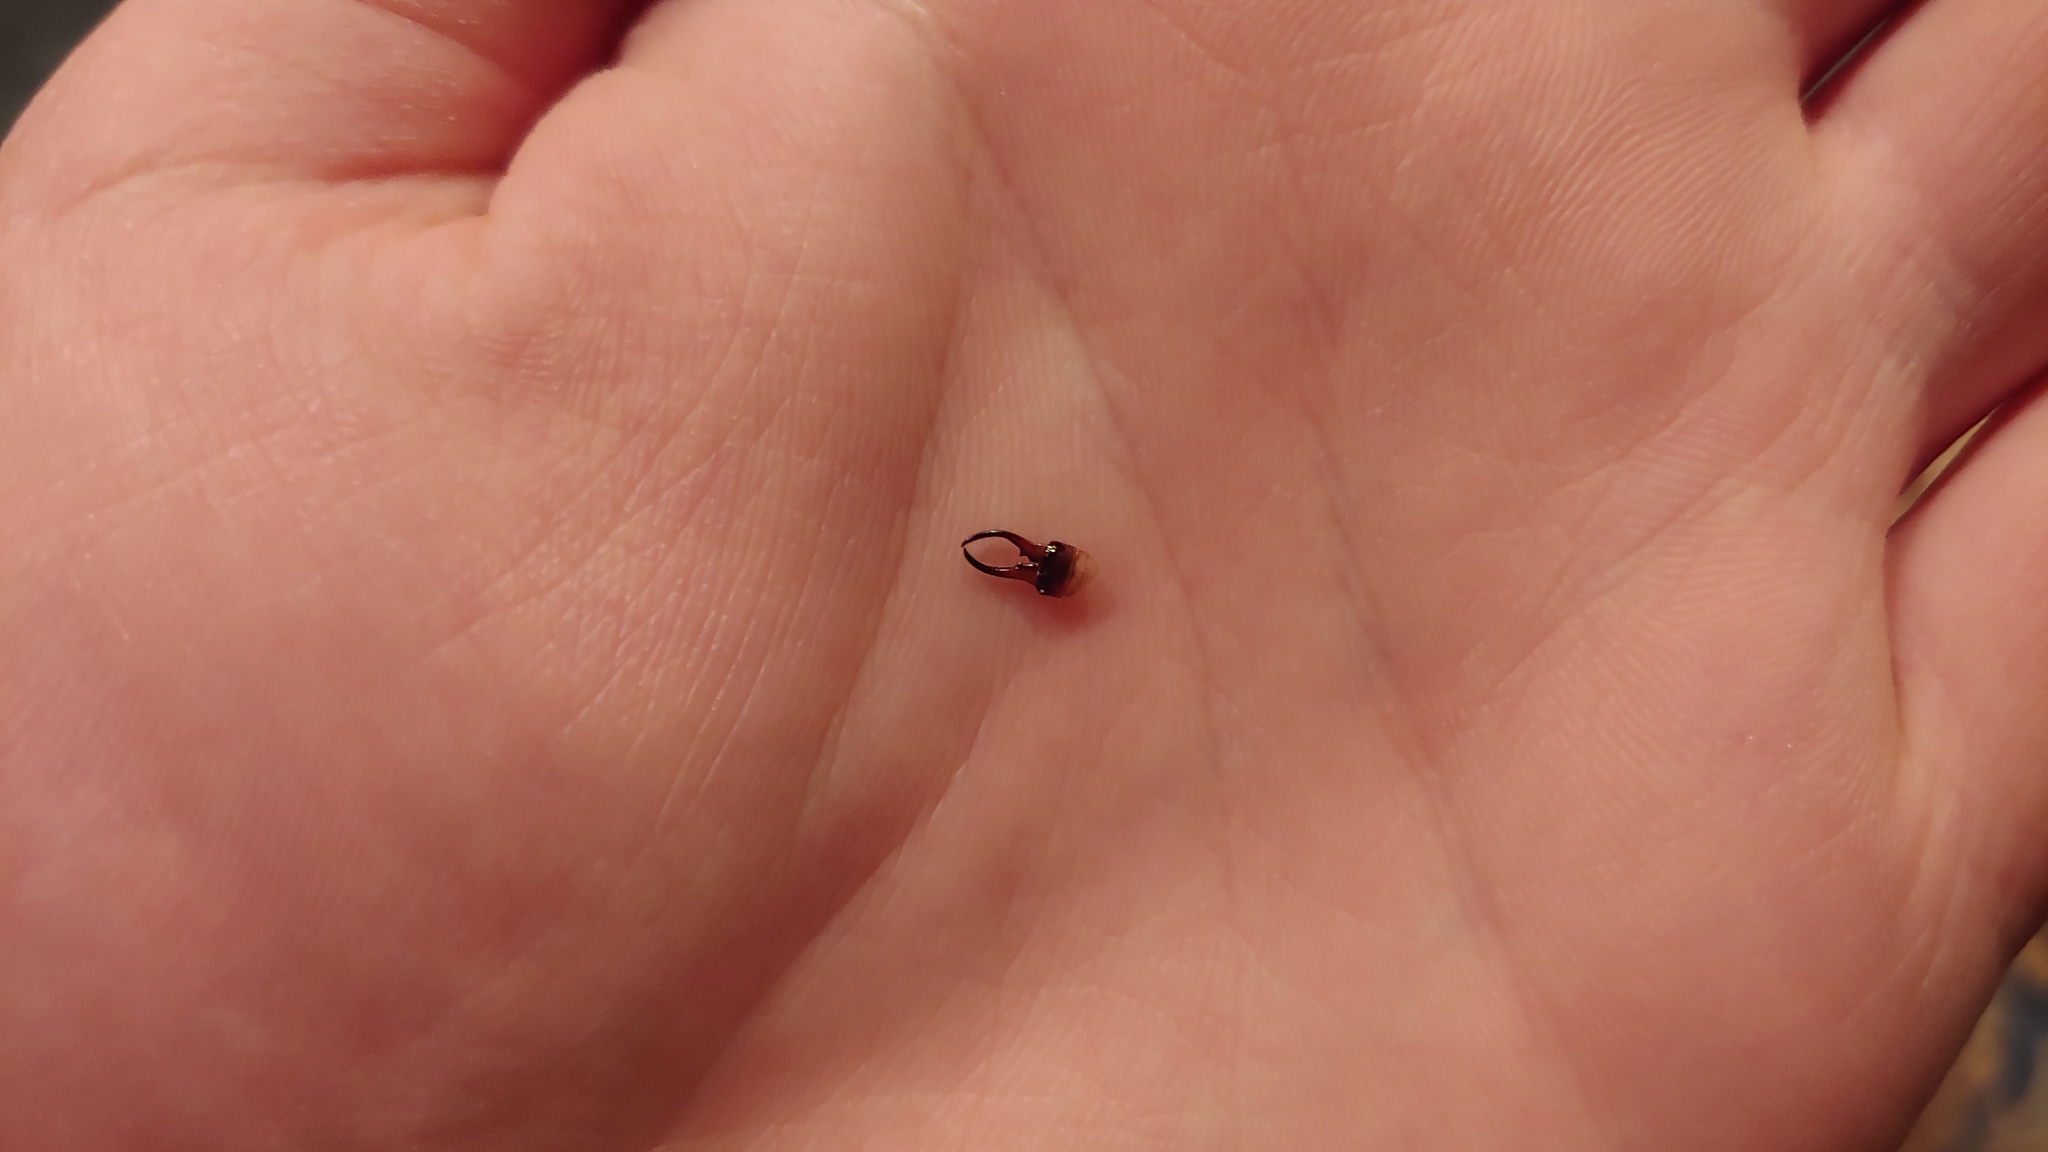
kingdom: Animalia
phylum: Arthropoda
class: Insecta
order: Dermaptera
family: Forficulidae
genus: Forficula
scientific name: Forficula
